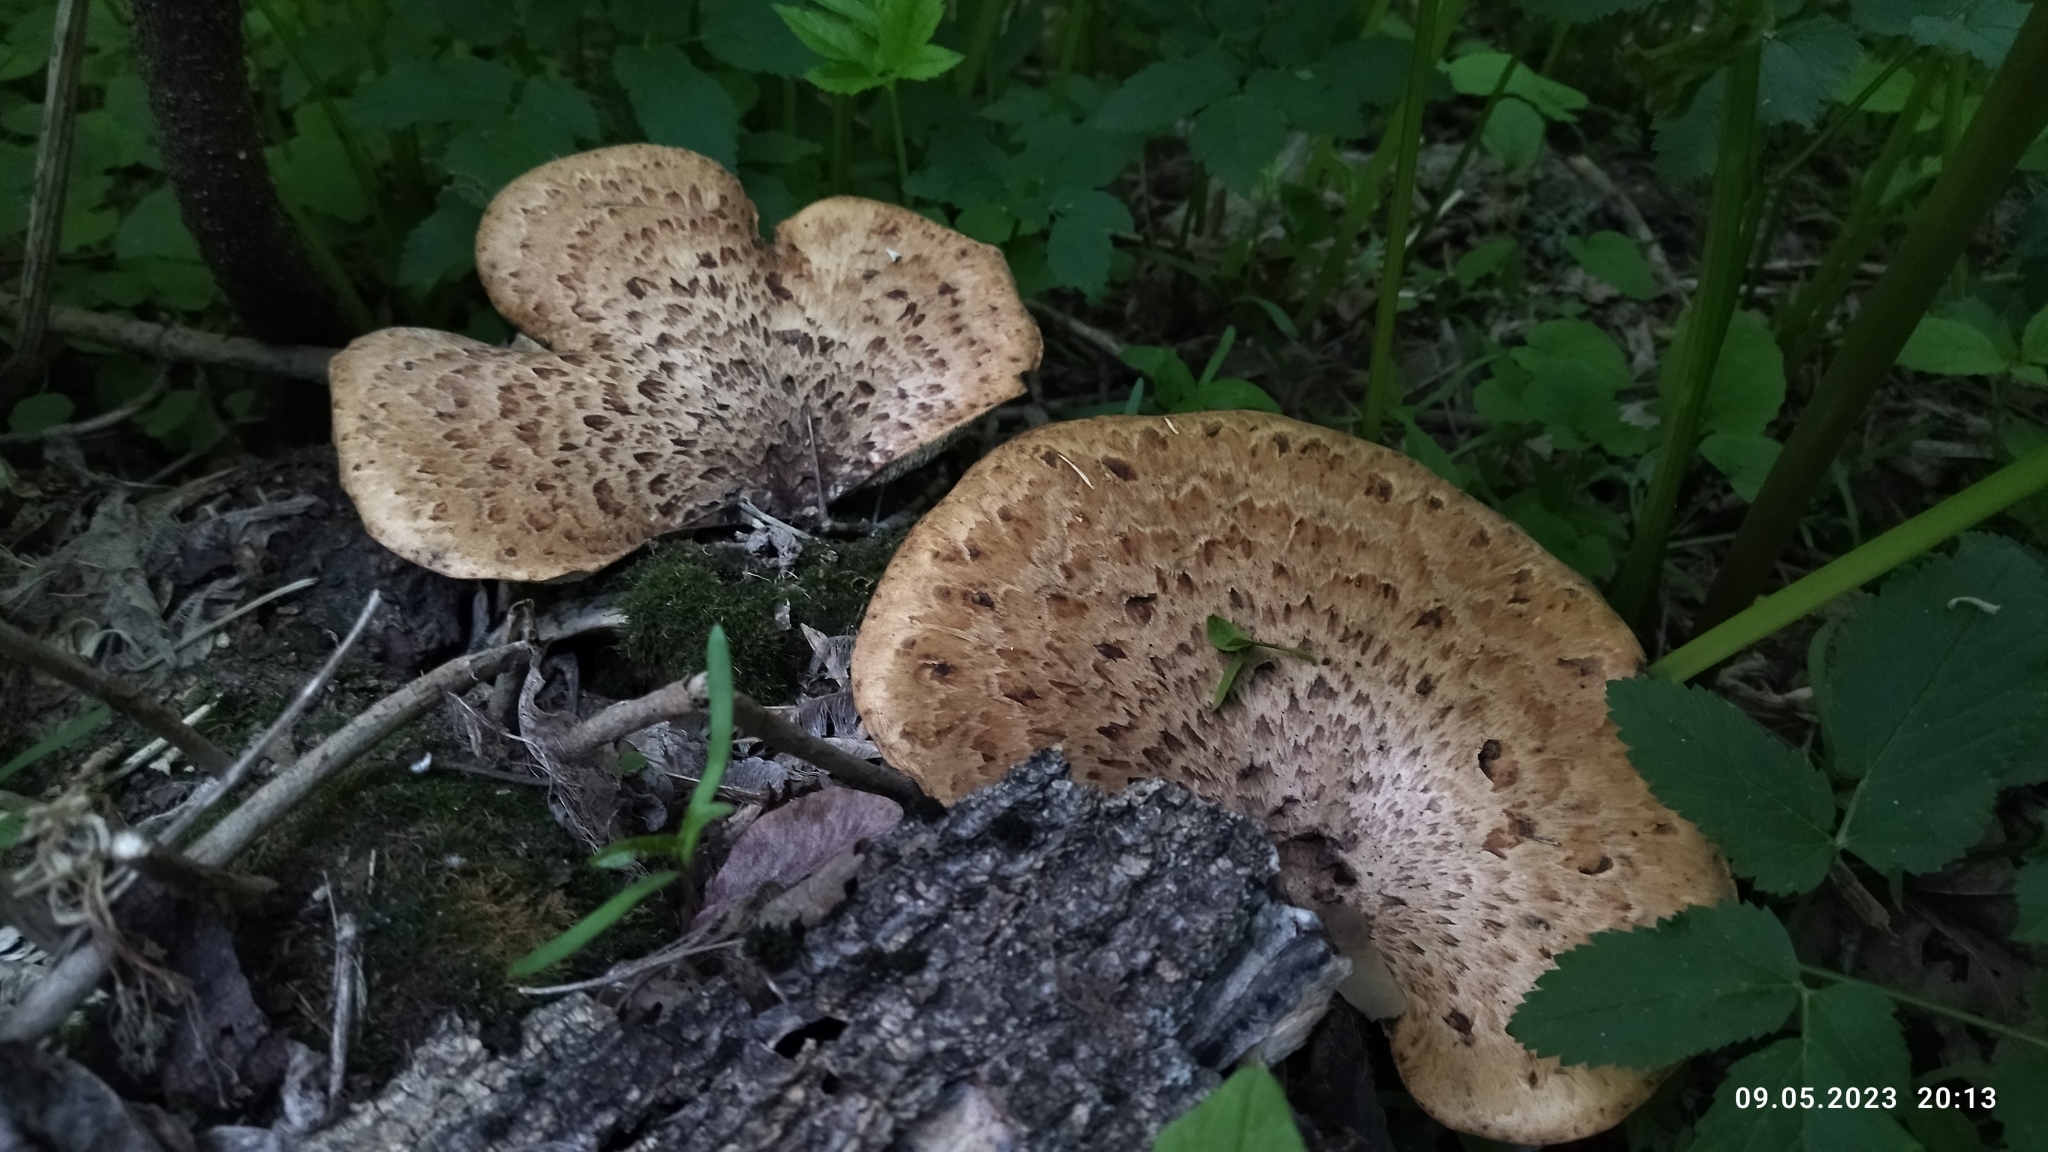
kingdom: Fungi
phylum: Basidiomycota
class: Agaricomycetes
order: Polyporales
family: Polyporaceae
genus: Cerioporus
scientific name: Cerioporus squamosus
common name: Dryad's saddle
